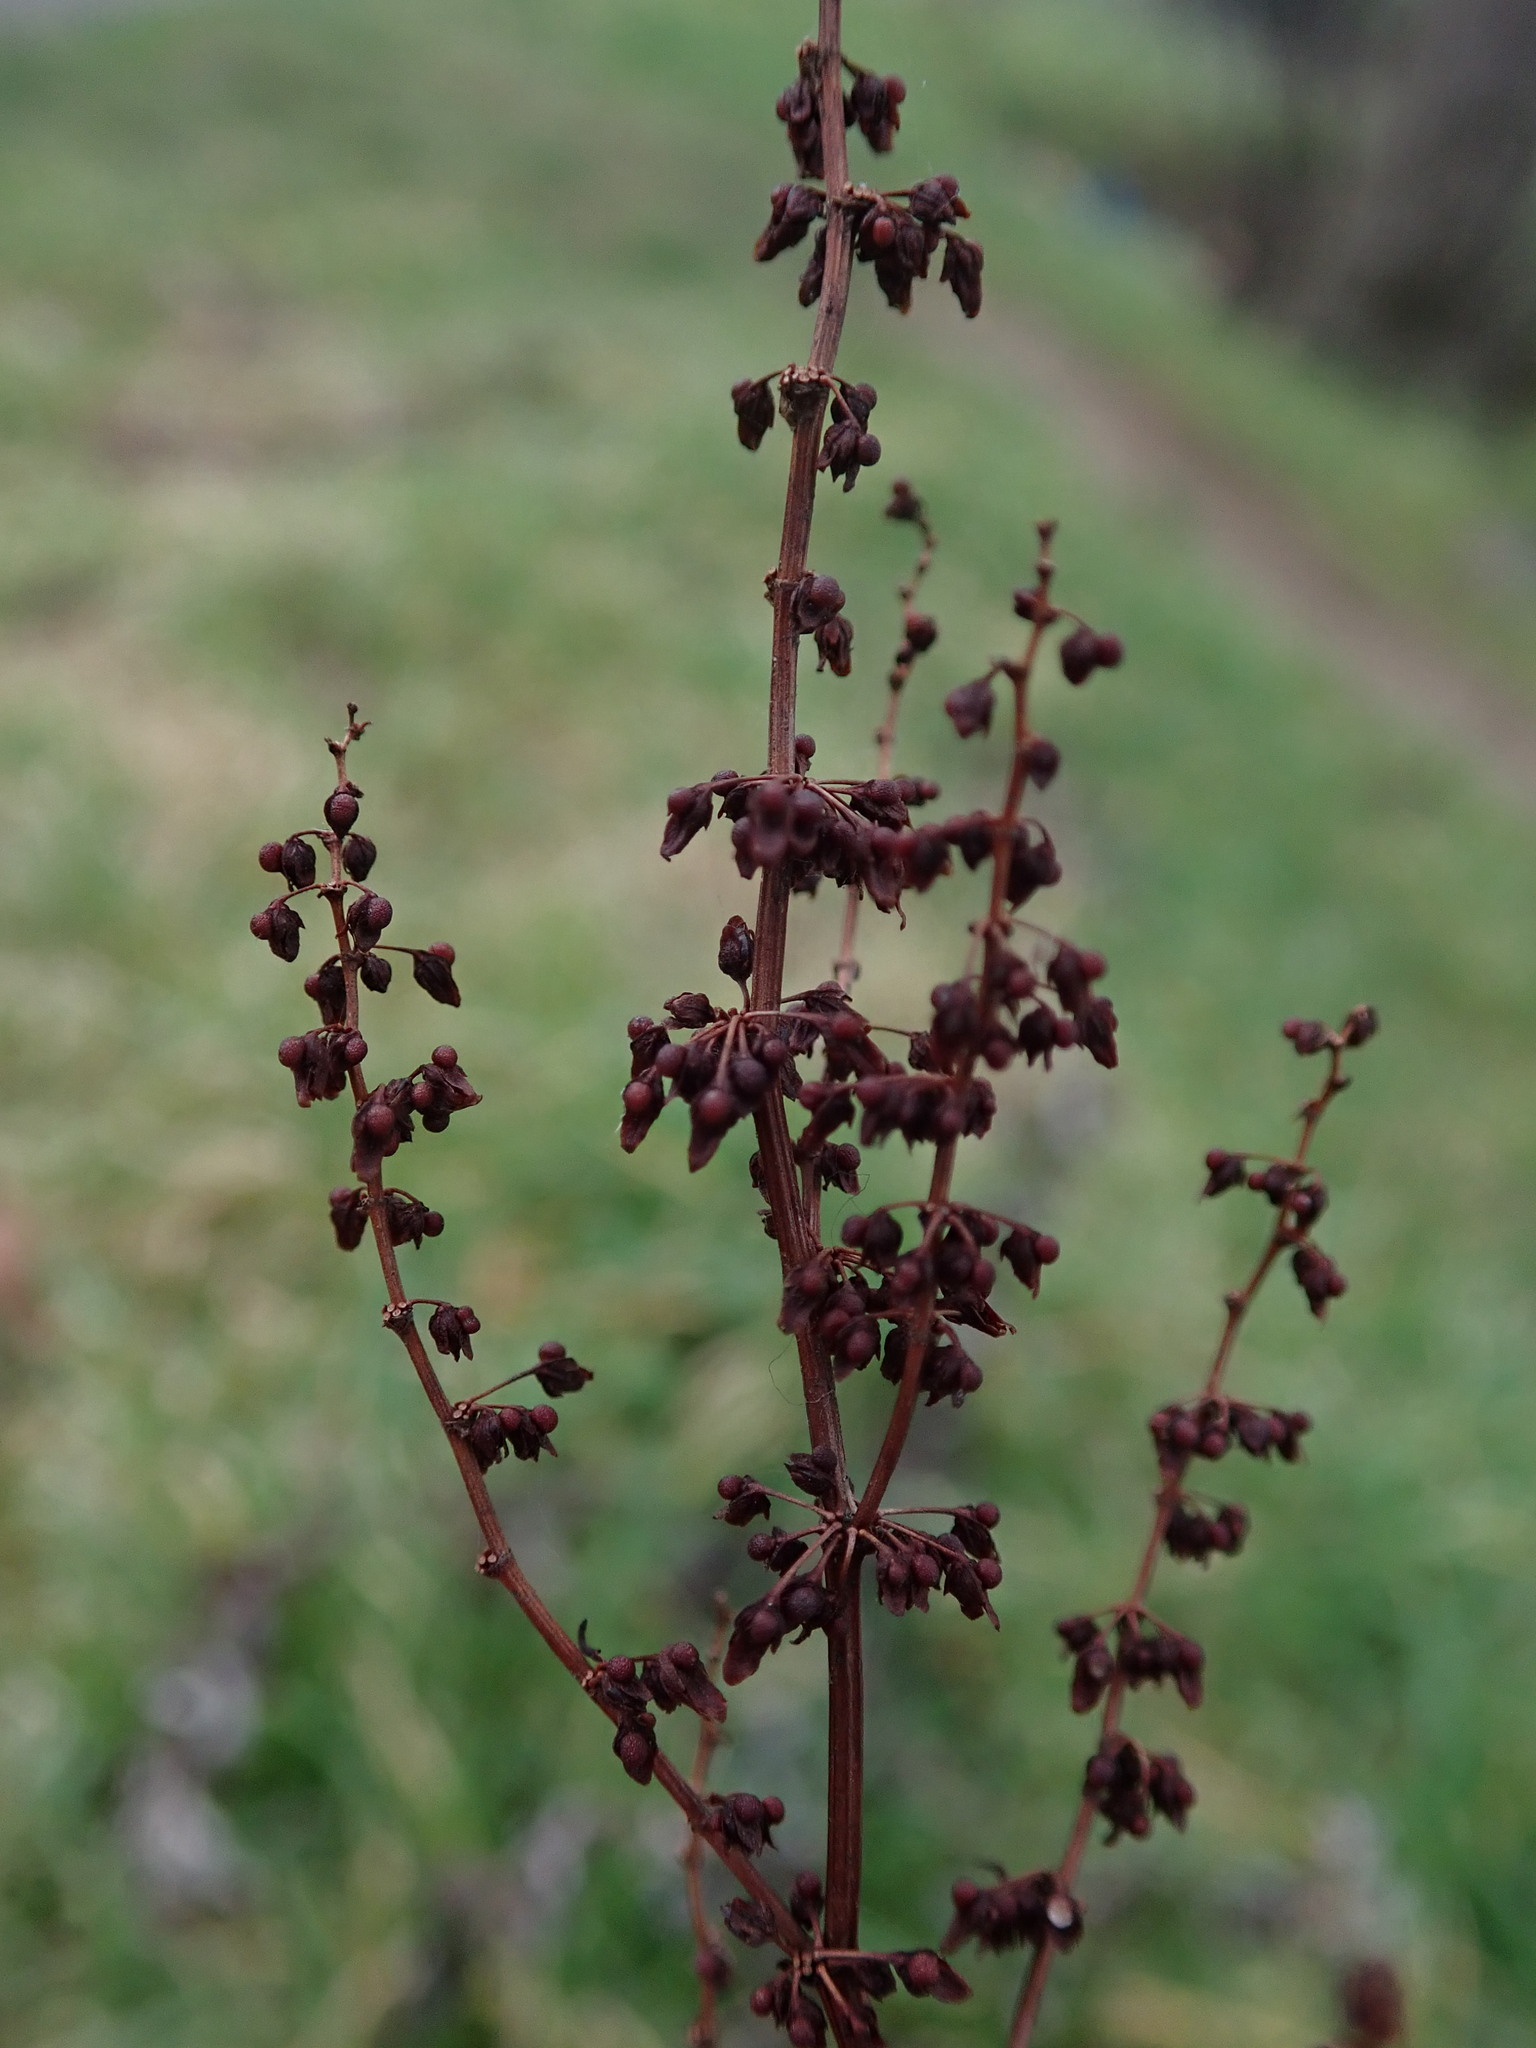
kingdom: Plantae
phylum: Tracheophyta
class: Magnoliopsida
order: Caryophyllales
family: Polygonaceae
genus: Rumex
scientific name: Rumex sanguineus
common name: Wood dock
